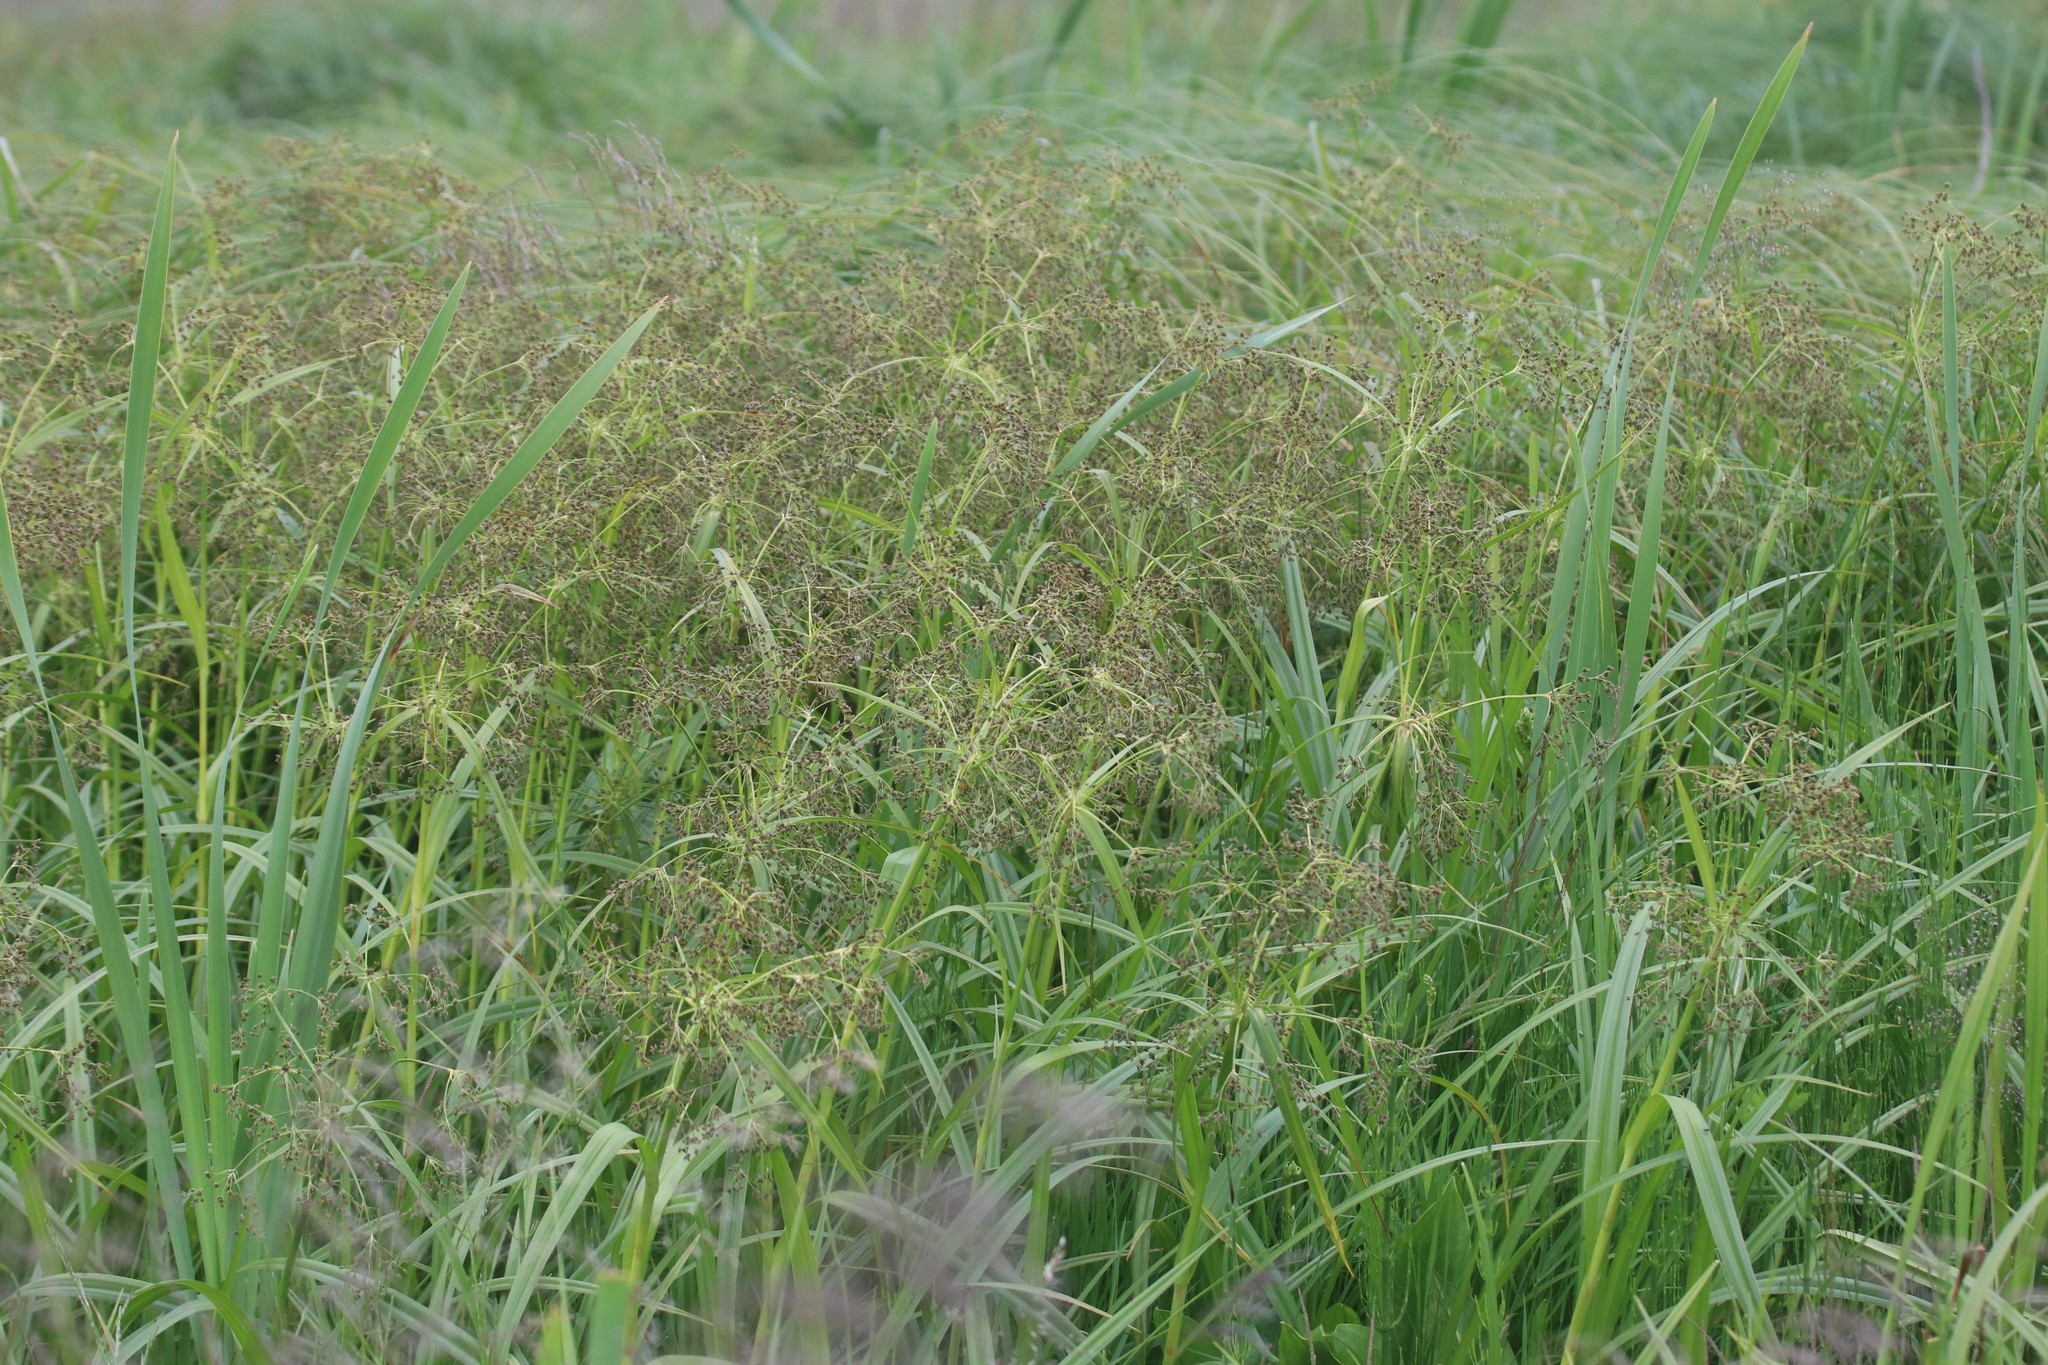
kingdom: Plantae
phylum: Tracheophyta
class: Liliopsida
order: Poales
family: Cyperaceae
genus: Scirpus
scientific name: Scirpus sylvaticus
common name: Wood club-rush
